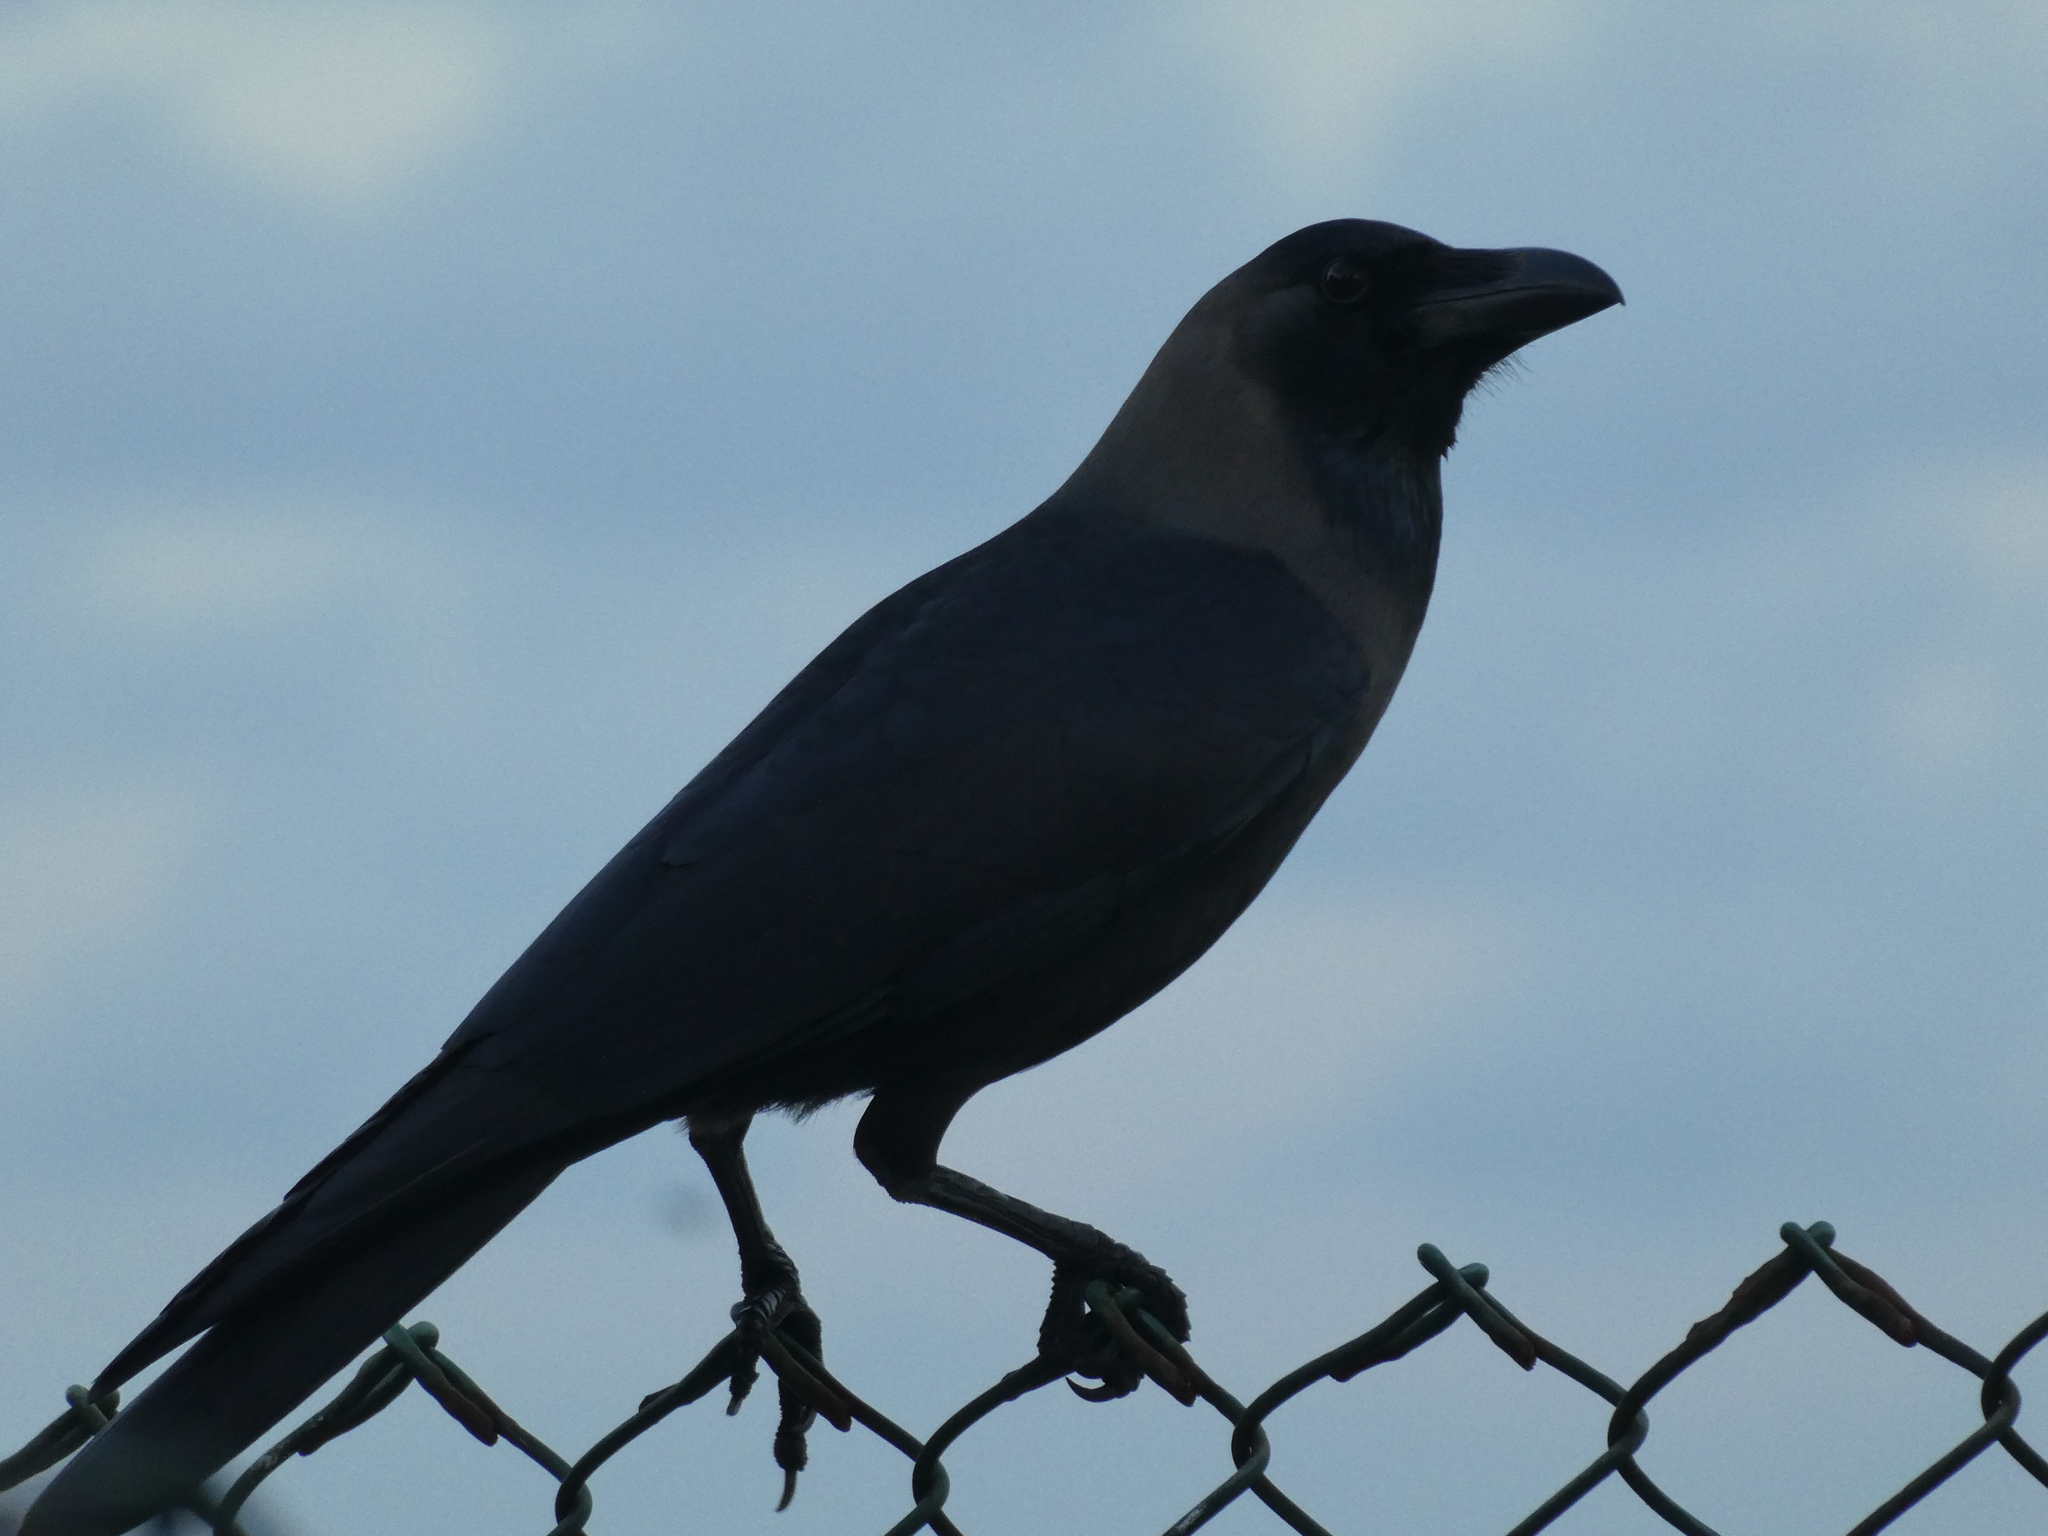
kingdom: Animalia
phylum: Chordata
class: Aves
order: Passeriformes
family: Corvidae
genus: Corvus
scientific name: Corvus splendens
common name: House crow
